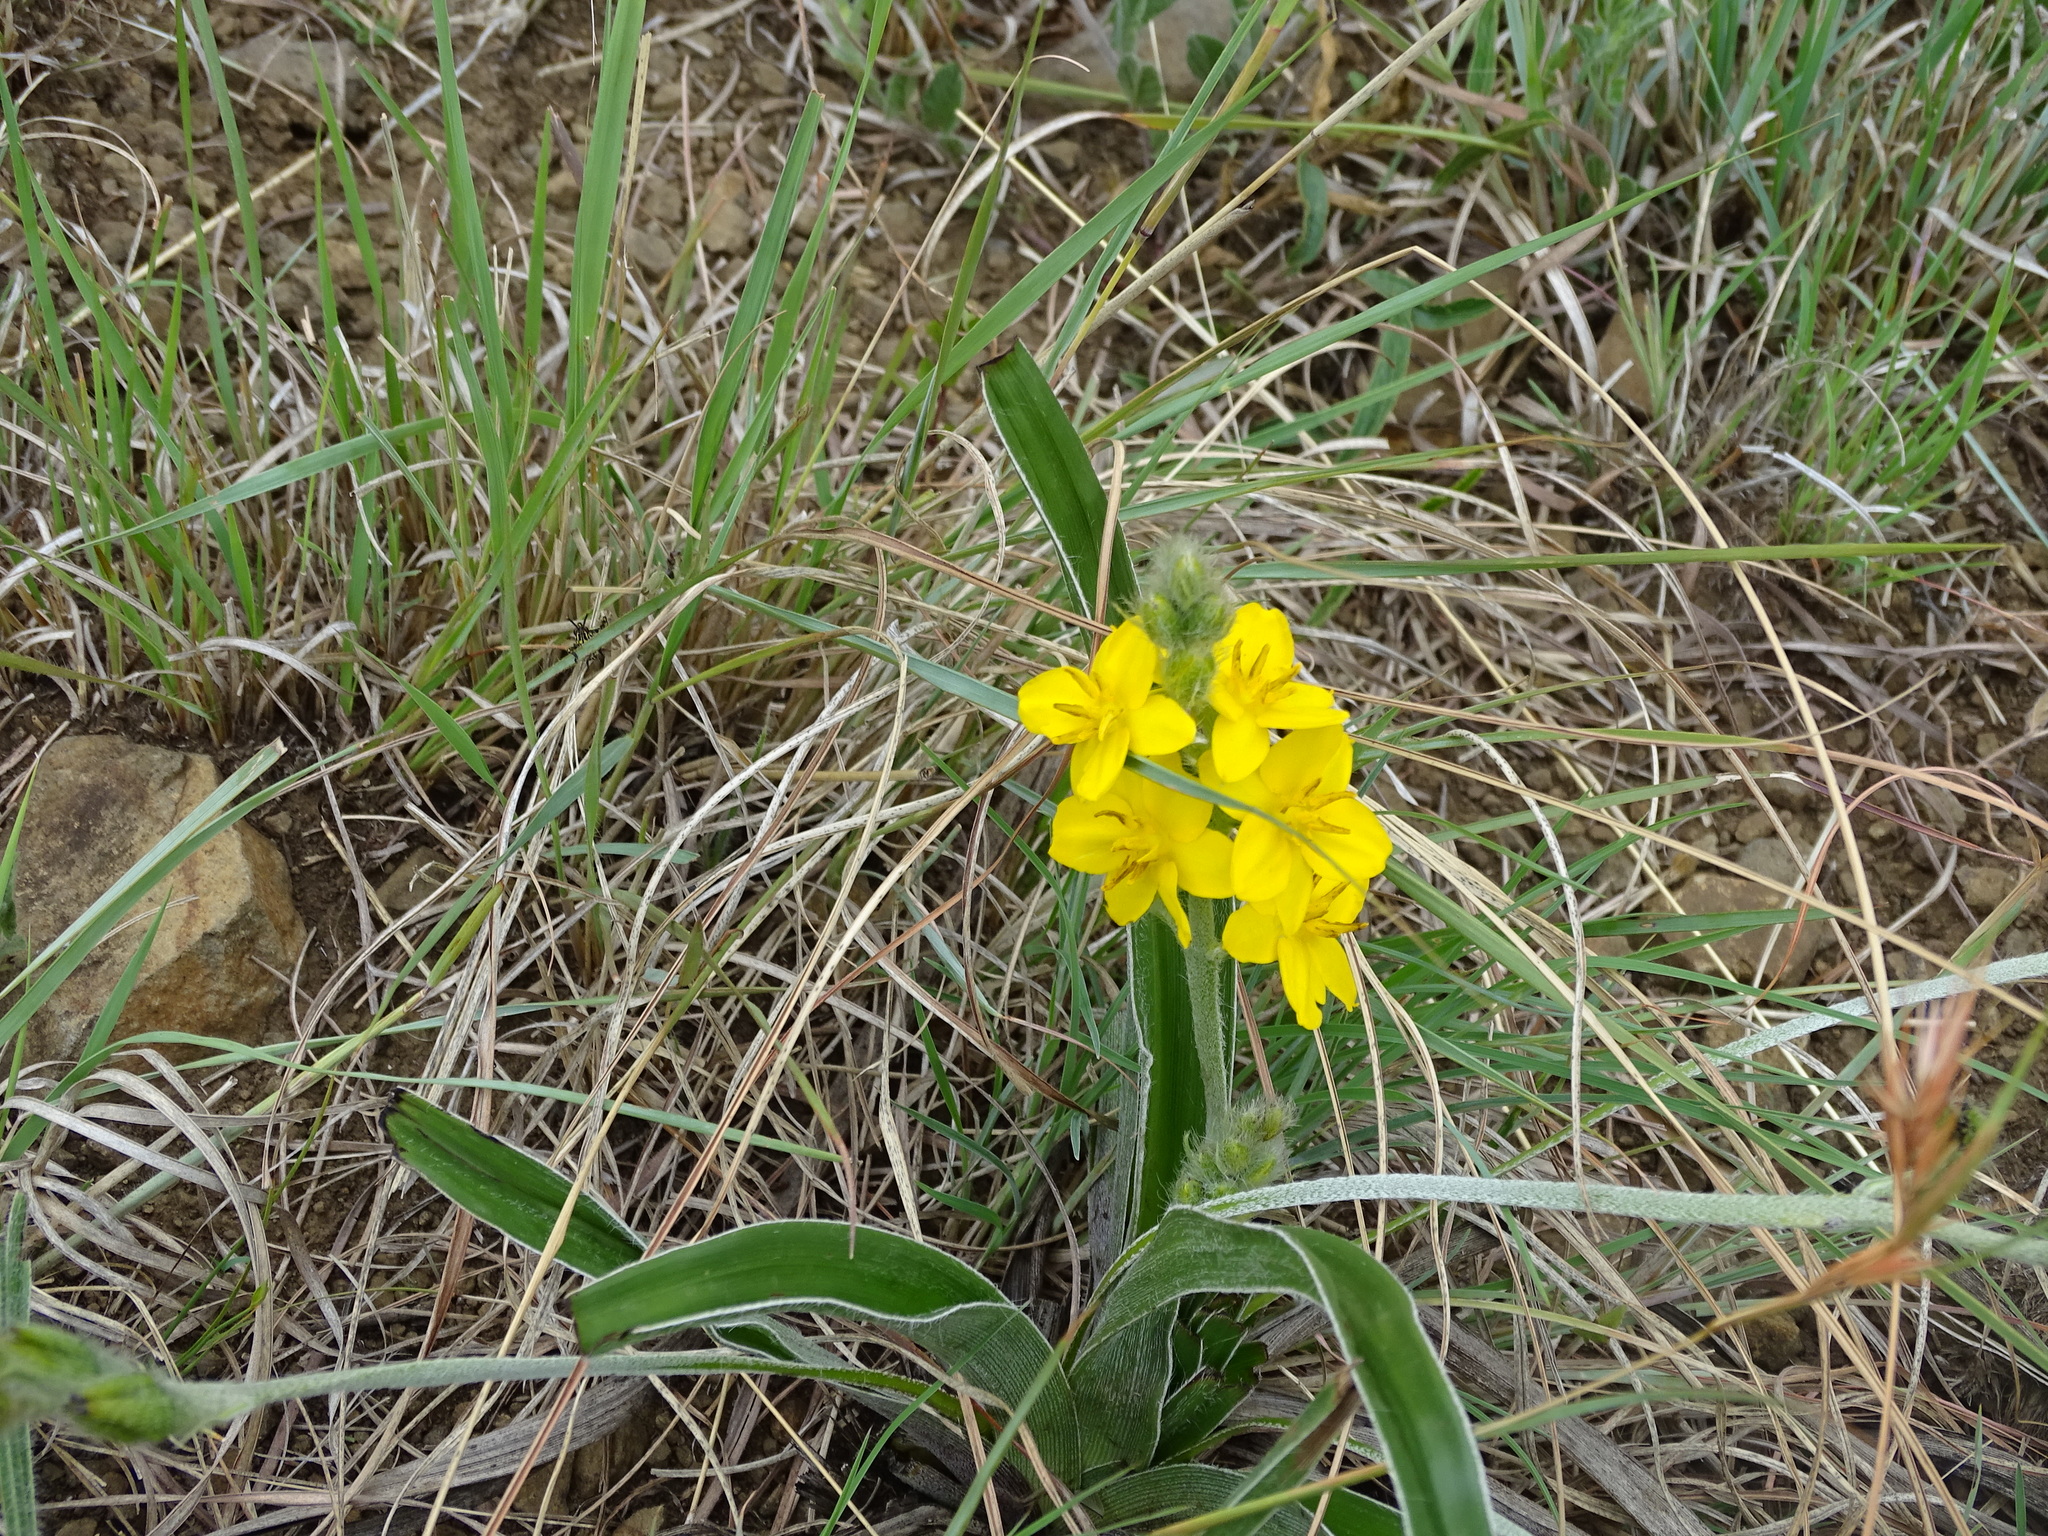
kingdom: Plantae
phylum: Tracheophyta
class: Liliopsida
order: Asparagales
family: Hypoxidaceae
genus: Hypoxis
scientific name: Hypoxis hemerocallidea
